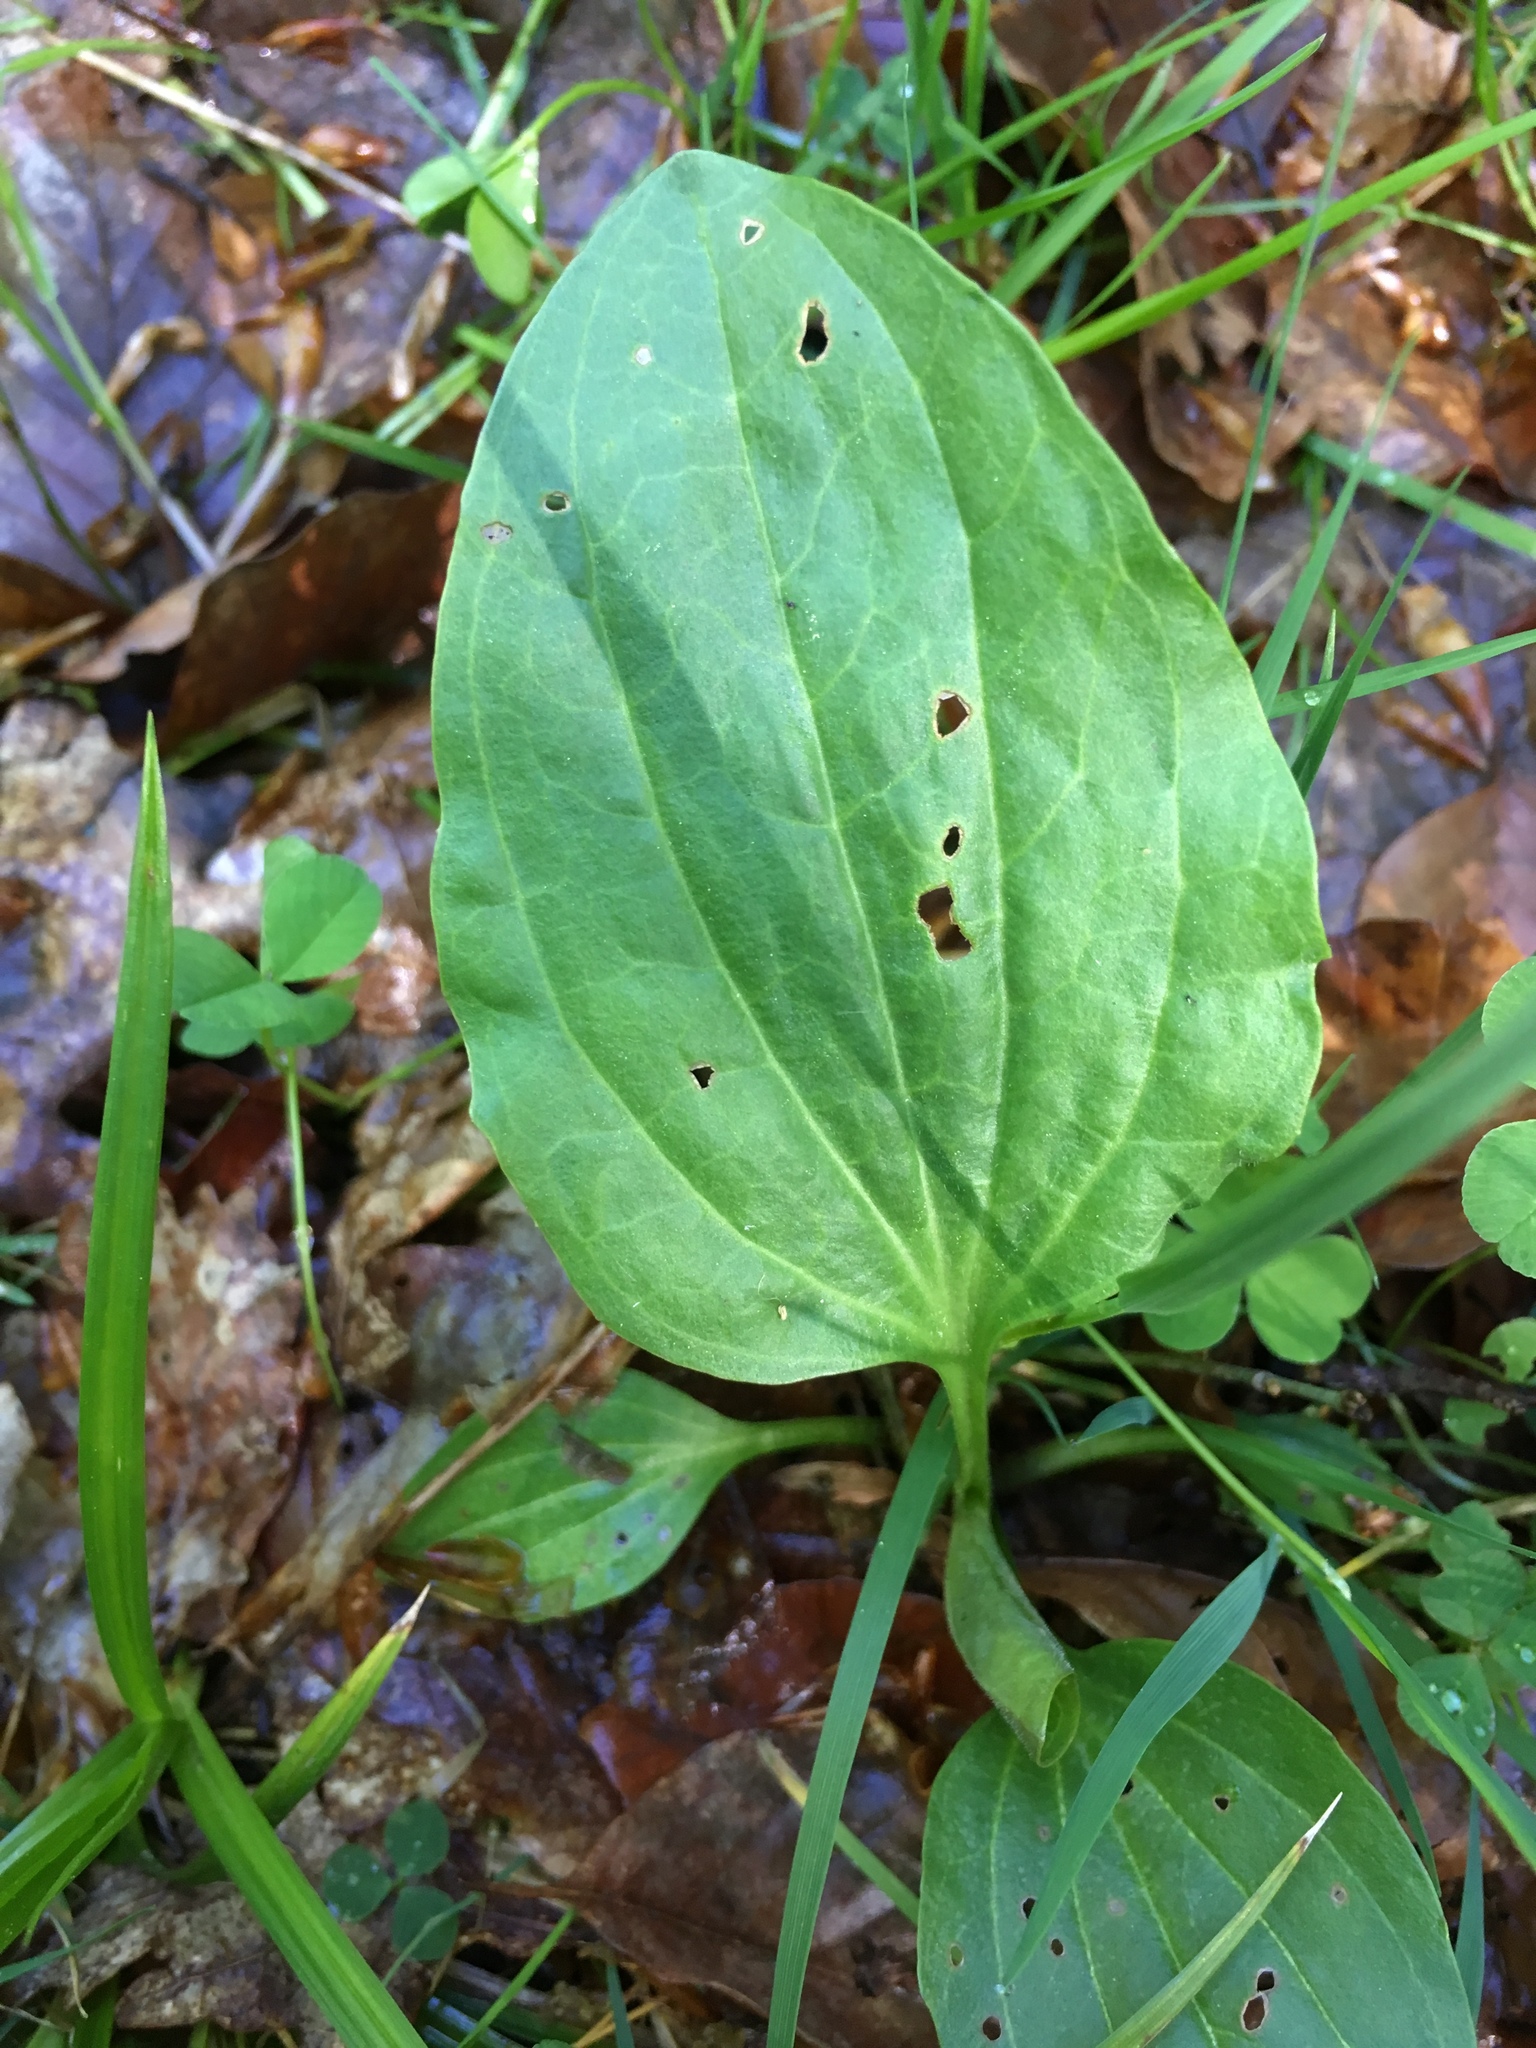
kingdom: Plantae
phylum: Tracheophyta
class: Magnoliopsida
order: Lamiales
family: Plantaginaceae
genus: Plantago
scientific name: Plantago major
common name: Common plantain
